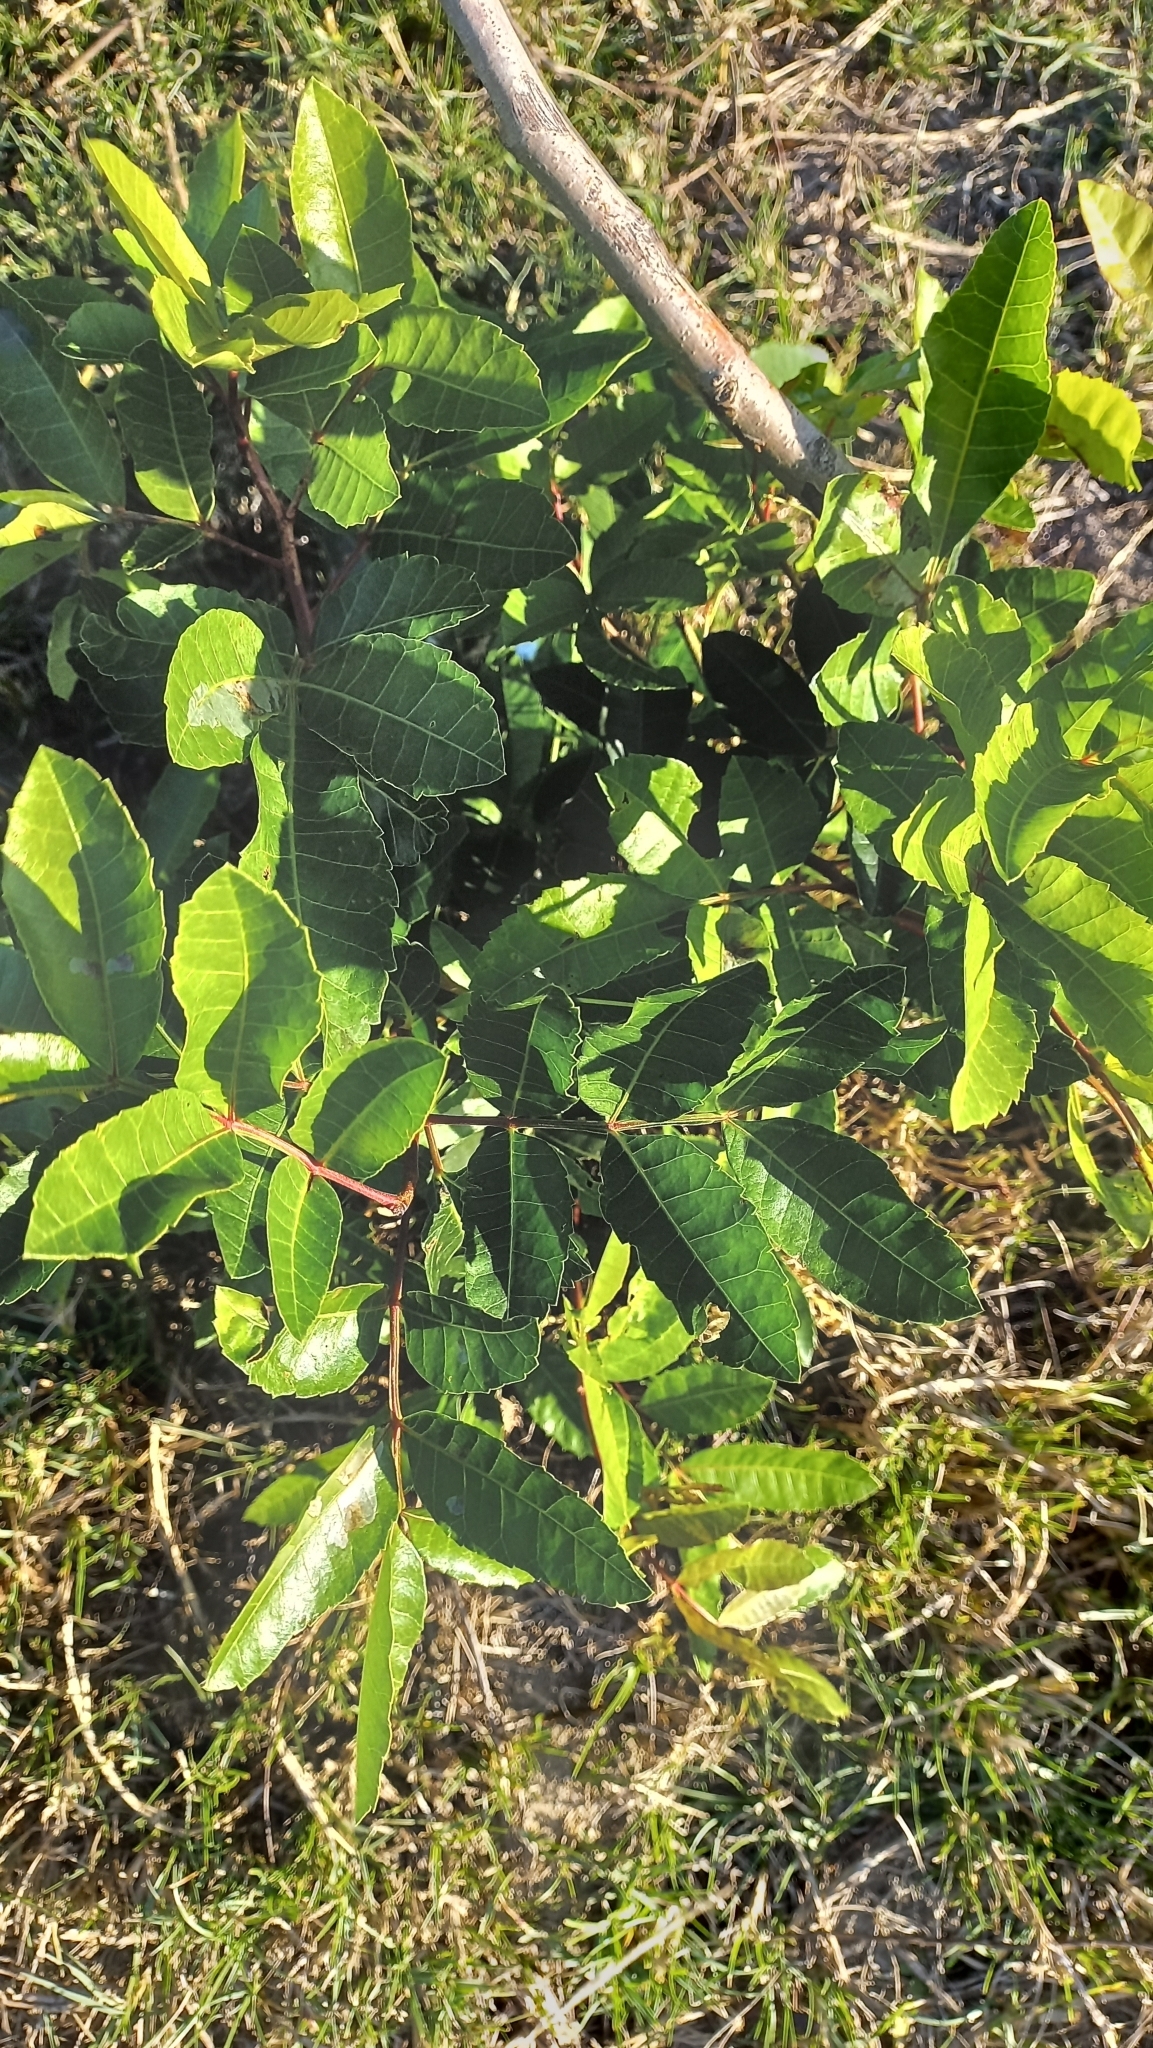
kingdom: Plantae
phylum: Tracheophyta
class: Magnoliopsida
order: Sapindales
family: Anacardiaceae
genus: Schinus
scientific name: Schinus terebinthifolia
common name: Brazilian peppertree
